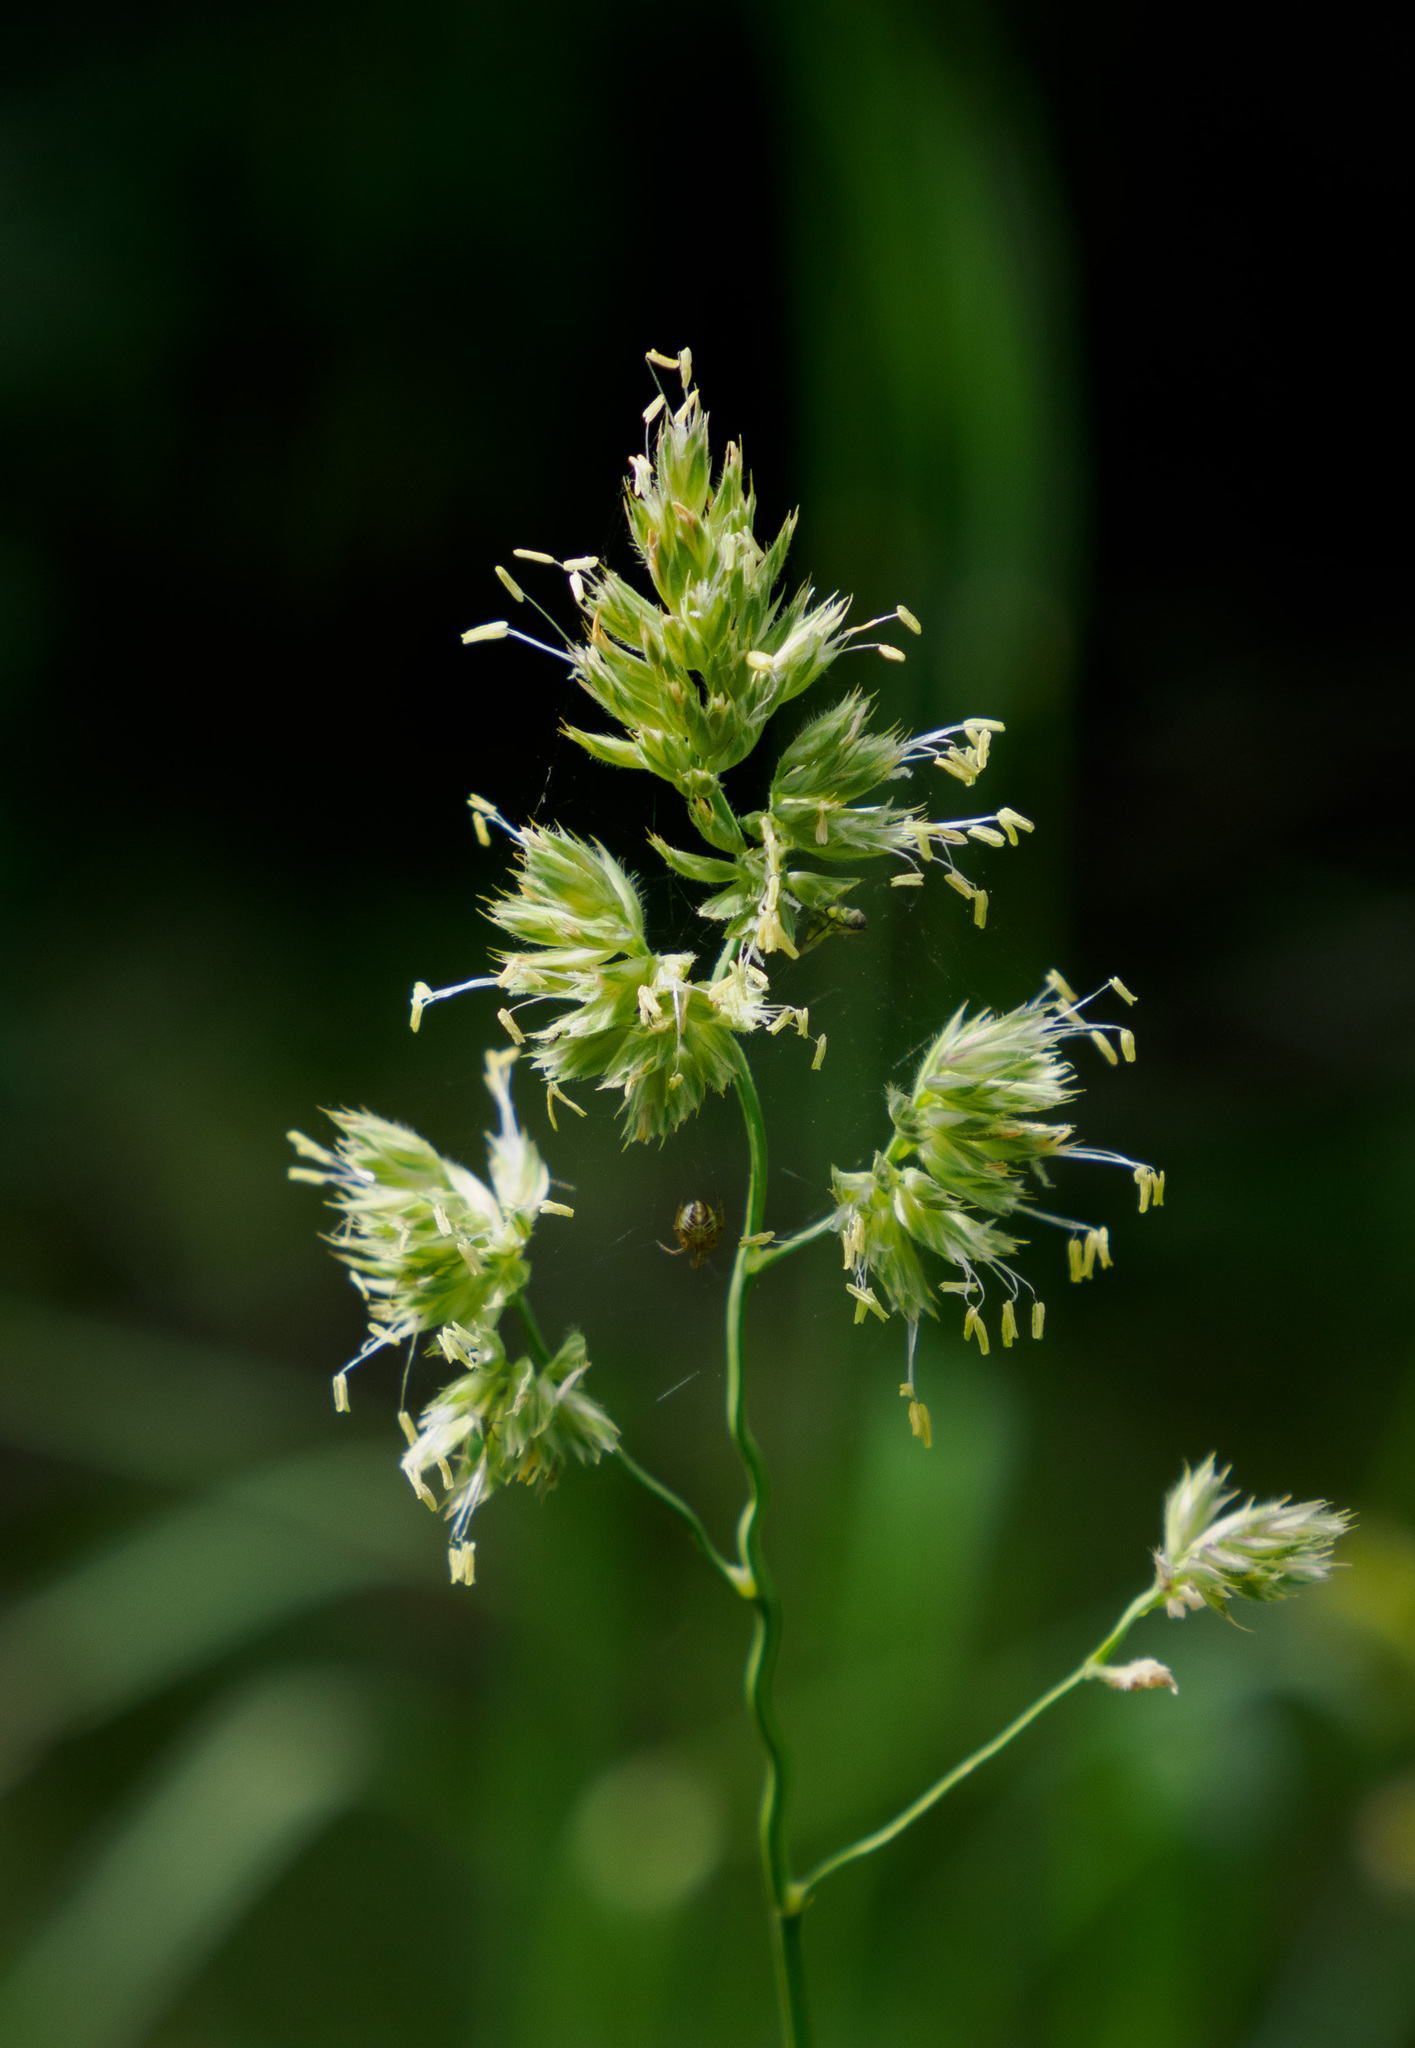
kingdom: Plantae
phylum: Tracheophyta
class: Liliopsida
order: Poales
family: Poaceae
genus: Dactylis
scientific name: Dactylis glomerata
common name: Orchardgrass
